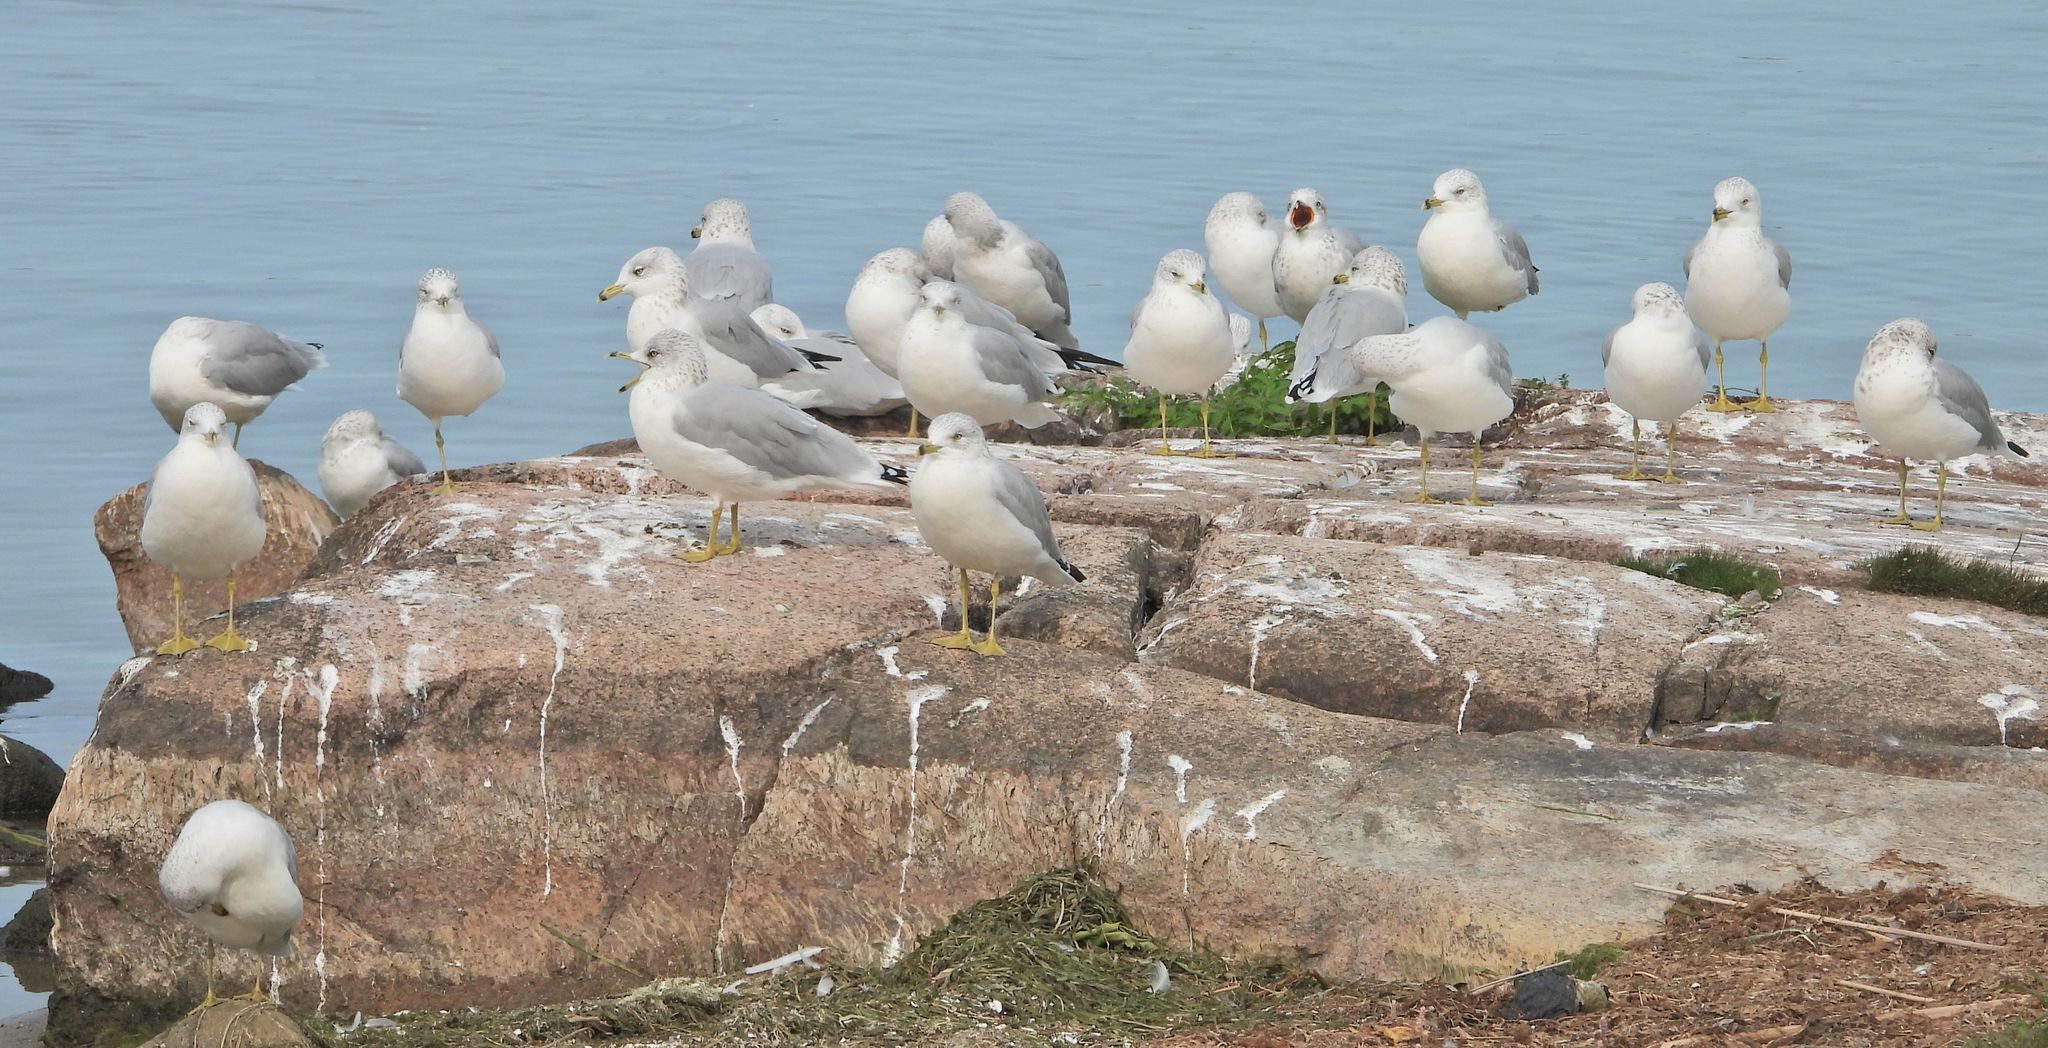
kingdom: Animalia
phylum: Chordata
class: Aves
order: Charadriiformes
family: Laridae
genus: Larus
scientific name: Larus delawarensis
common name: Ring-billed gull
